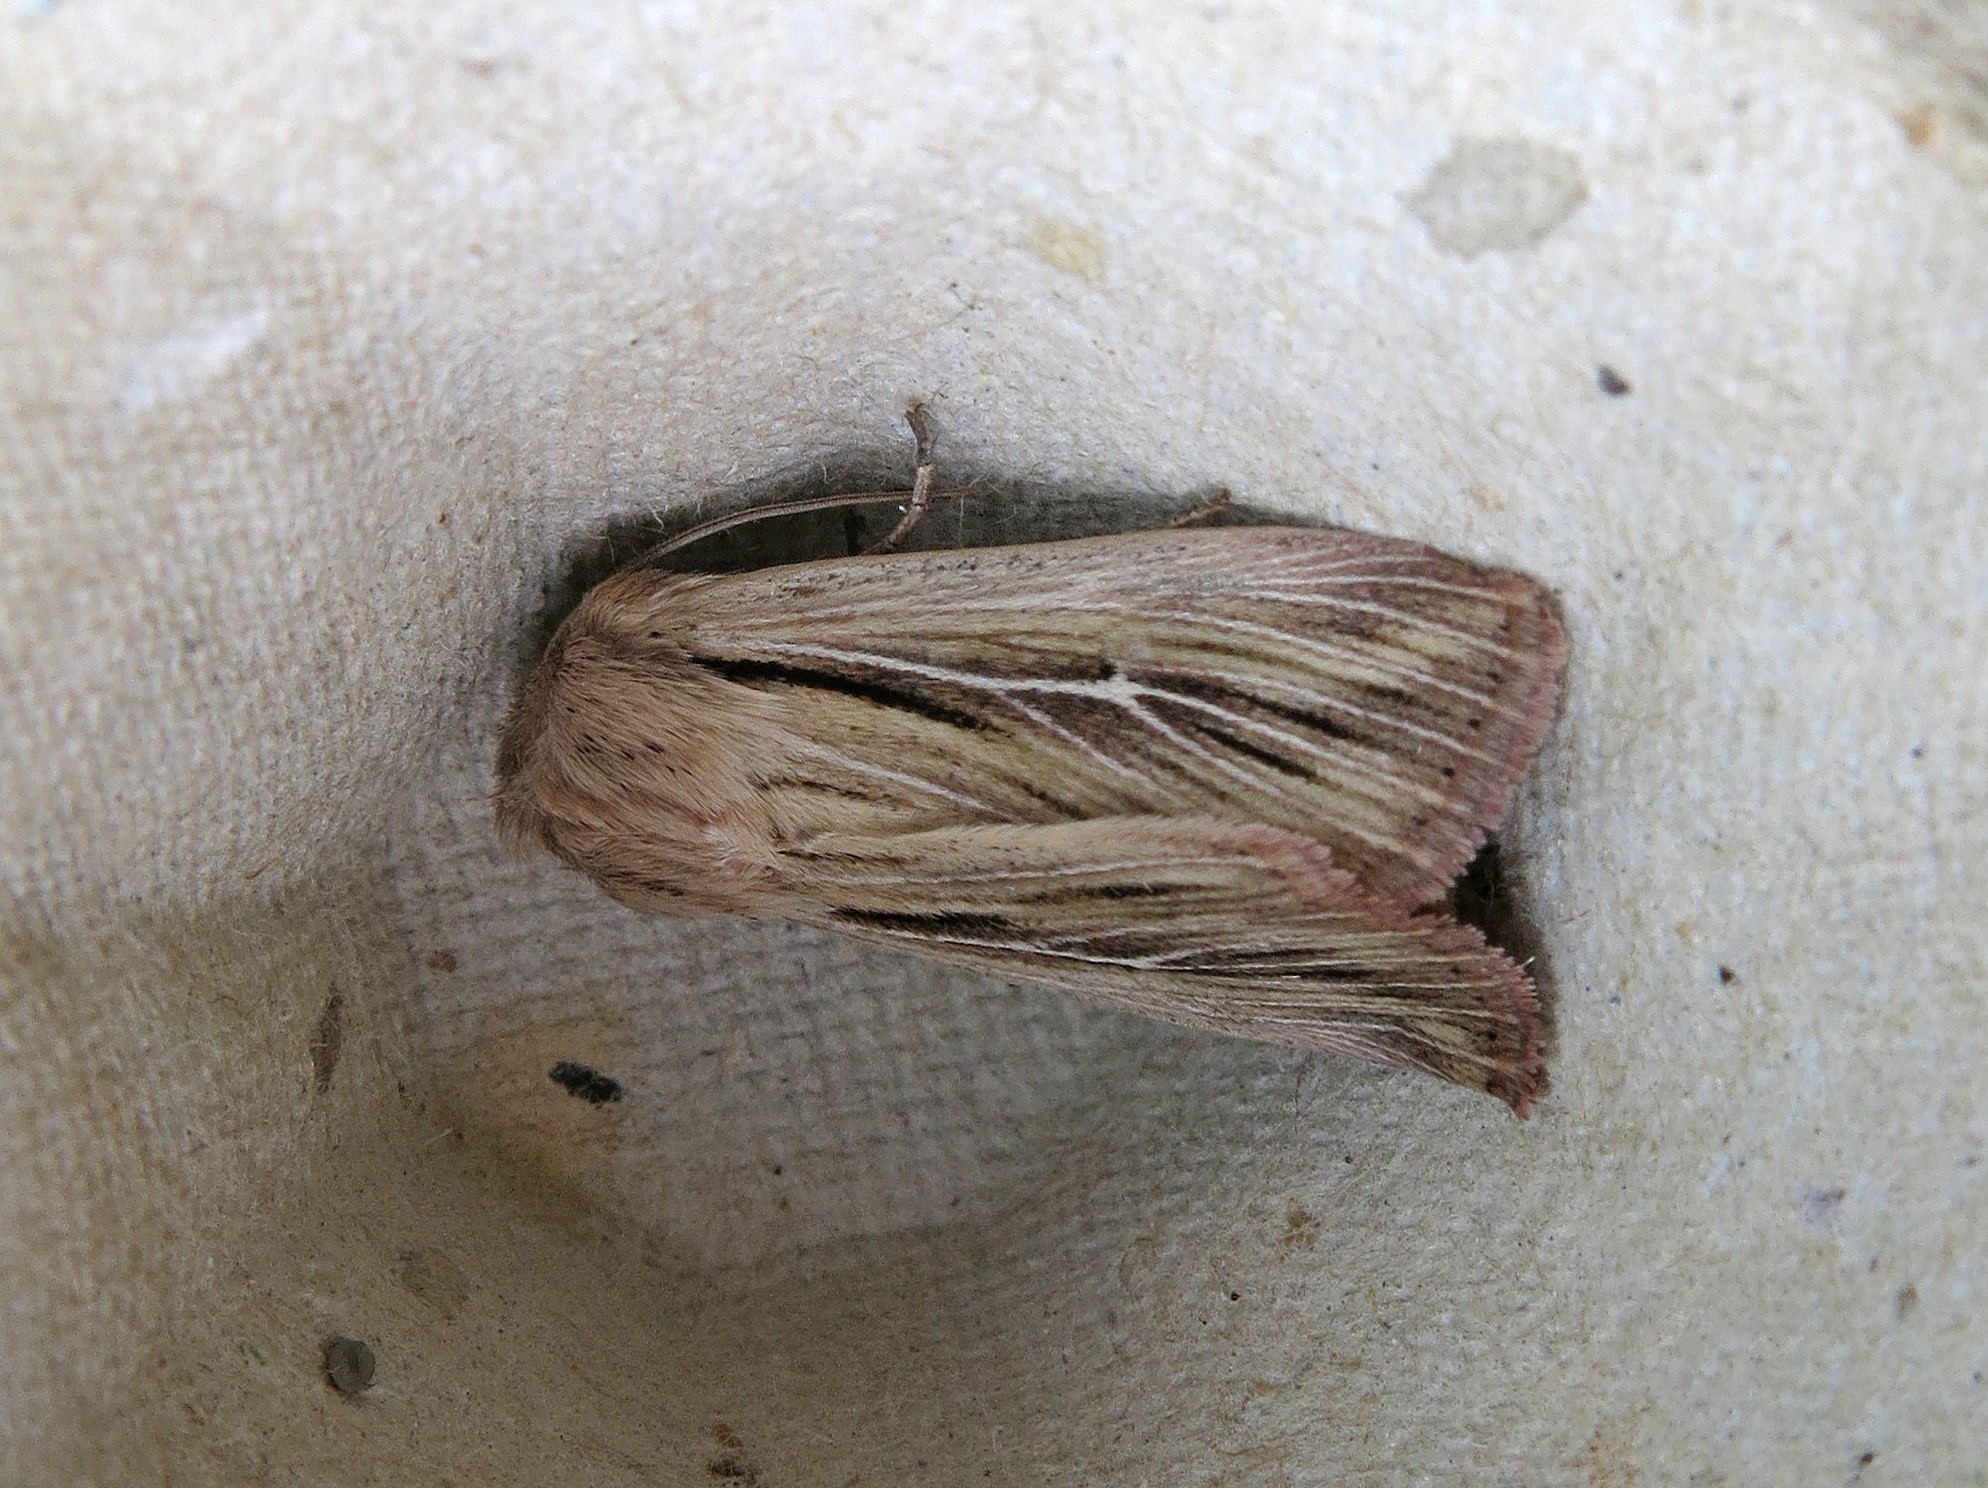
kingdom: Animalia
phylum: Arthropoda
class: Insecta
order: Lepidoptera
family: Noctuidae
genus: Leucania
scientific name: Leucania comma
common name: Shoulder-striped wainscot
